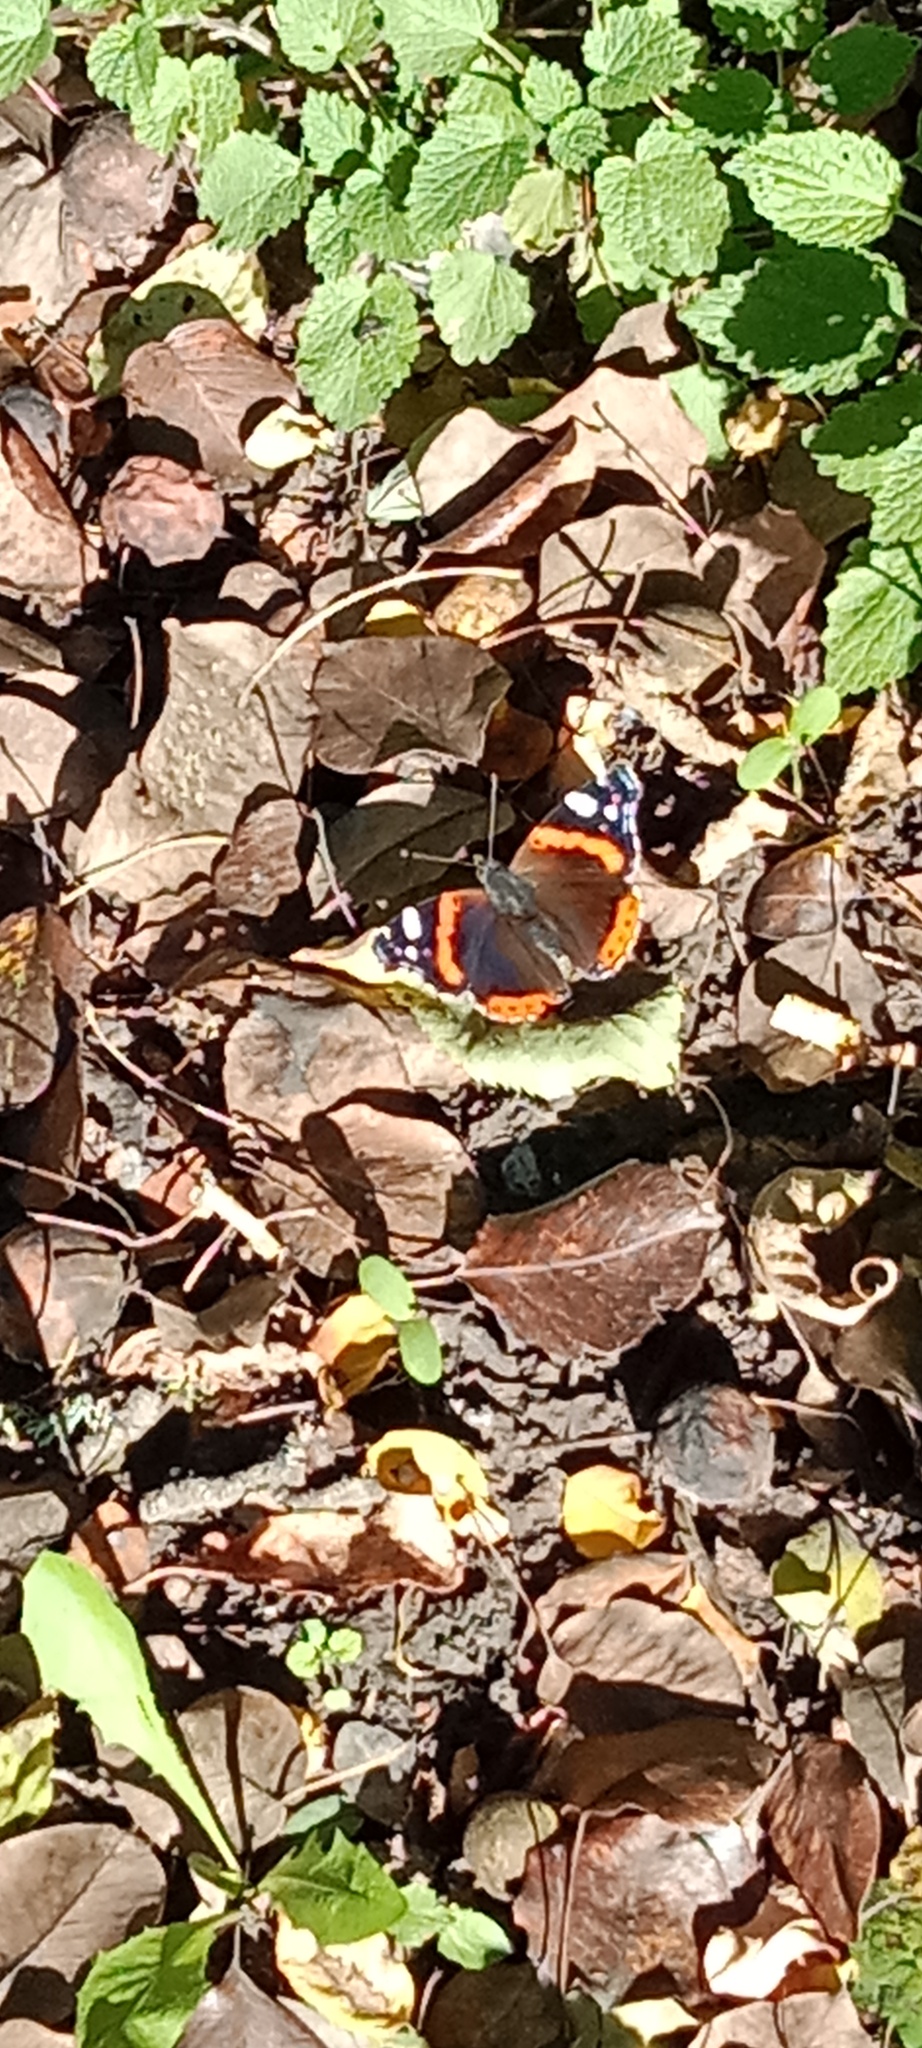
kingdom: Animalia
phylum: Arthropoda
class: Insecta
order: Lepidoptera
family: Nymphalidae
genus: Vanessa
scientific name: Vanessa atalanta
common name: Red admiral
